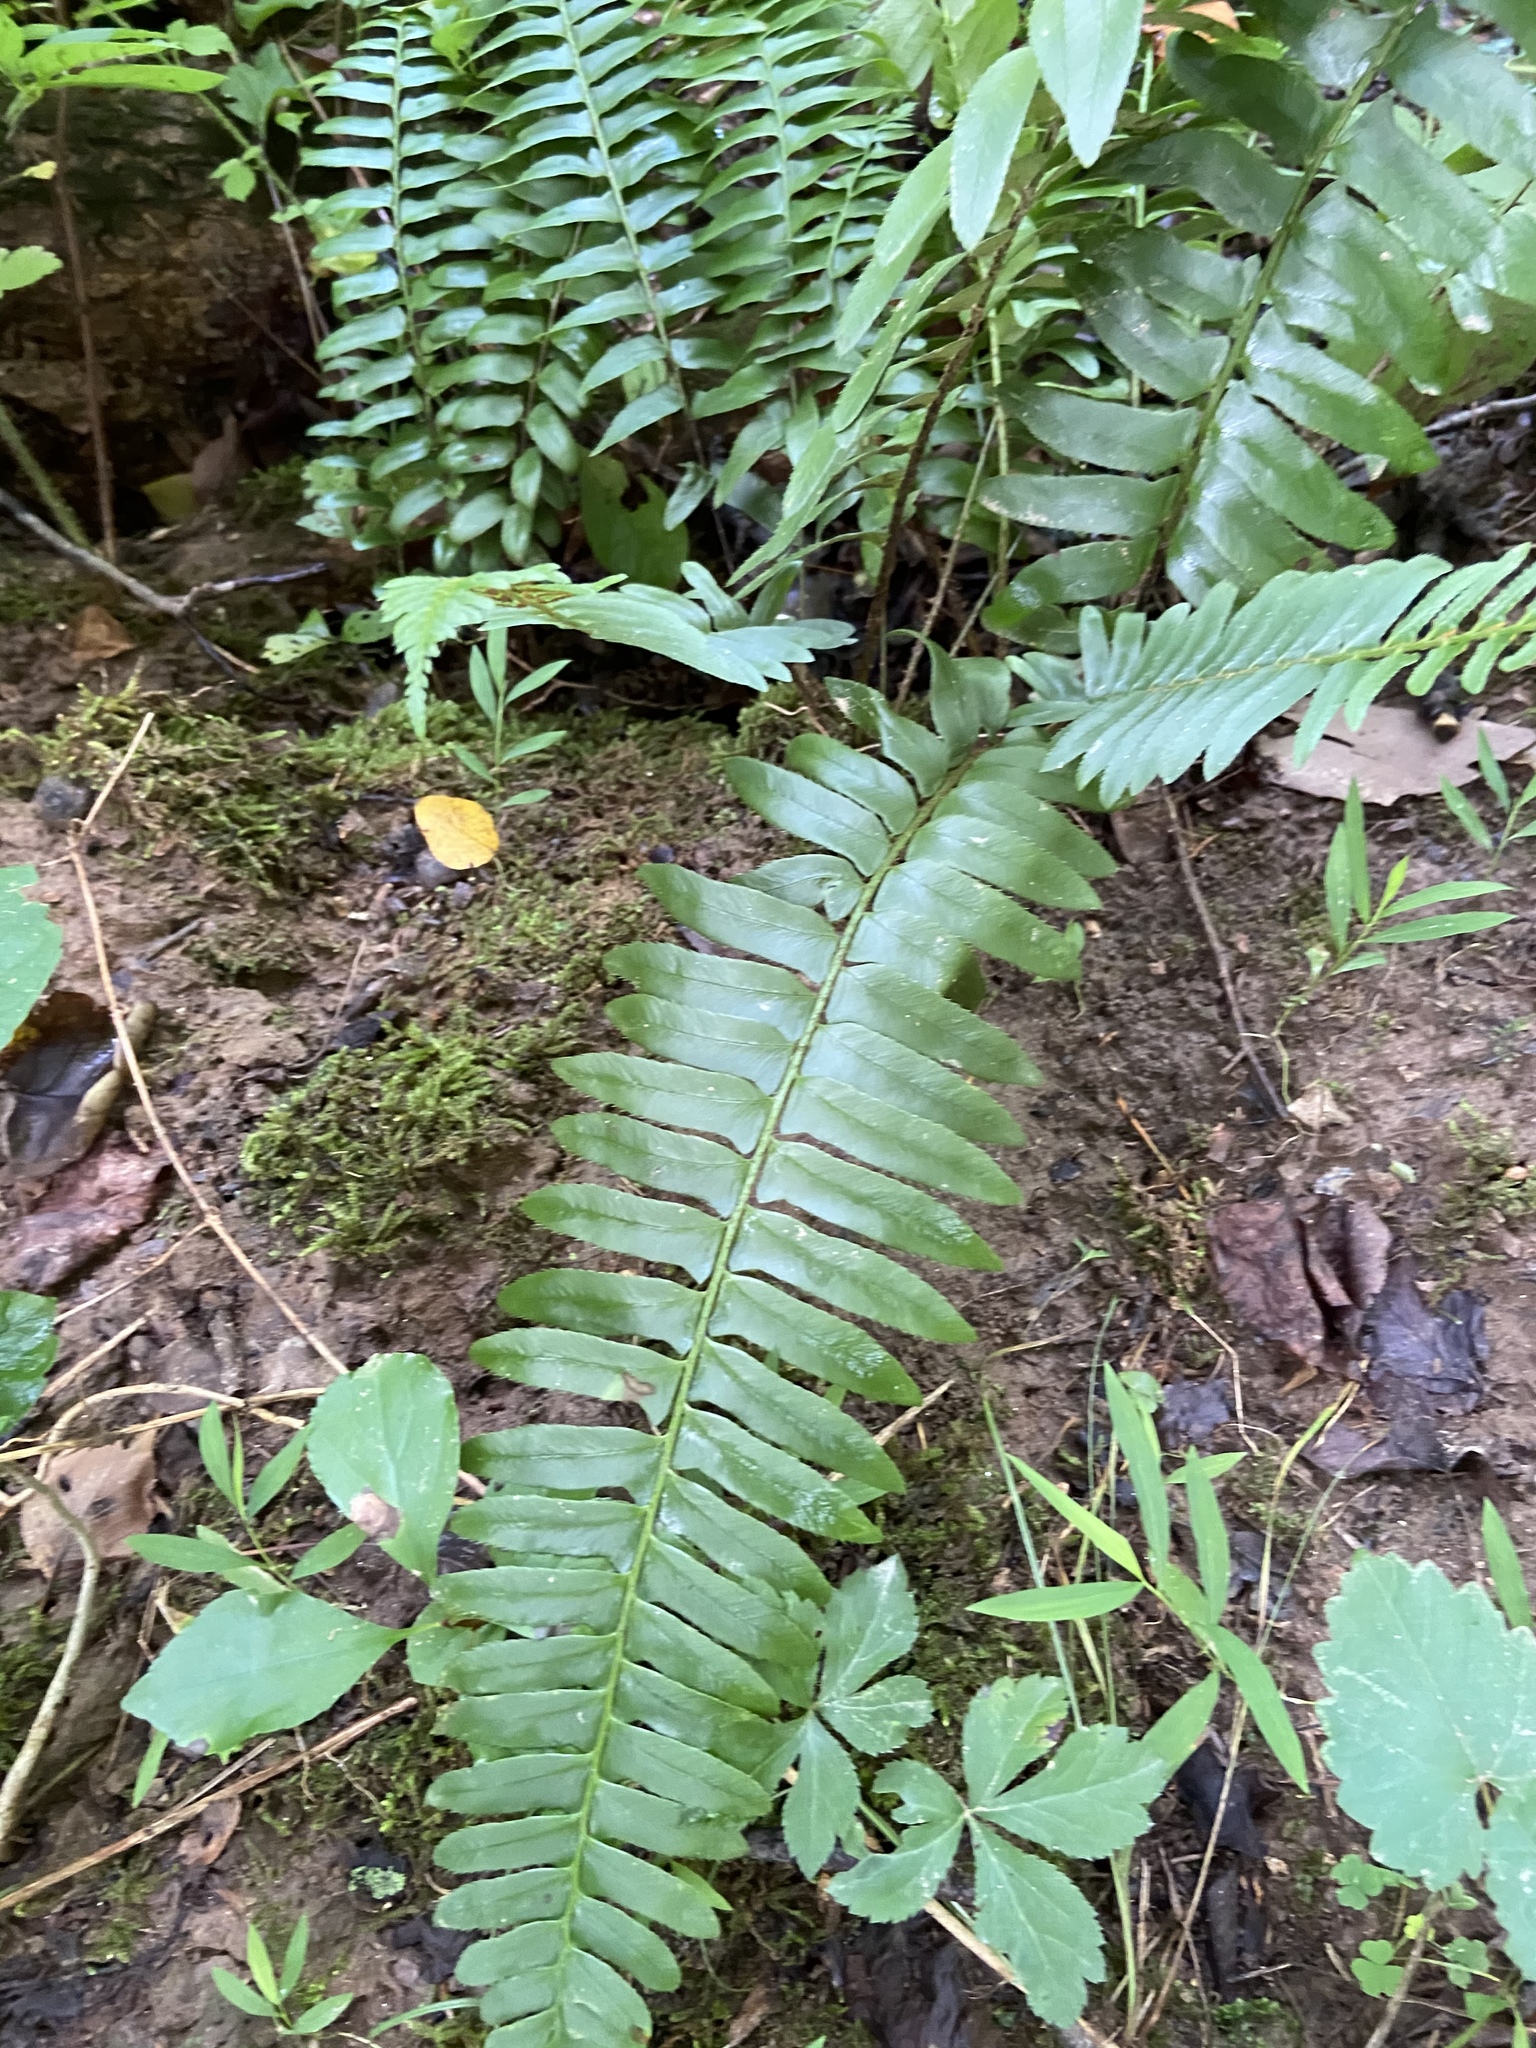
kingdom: Plantae
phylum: Tracheophyta
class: Polypodiopsida
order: Polypodiales
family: Dryopteridaceae
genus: Polystichum
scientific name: Polystichum acrostichoides
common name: Christmas fern
